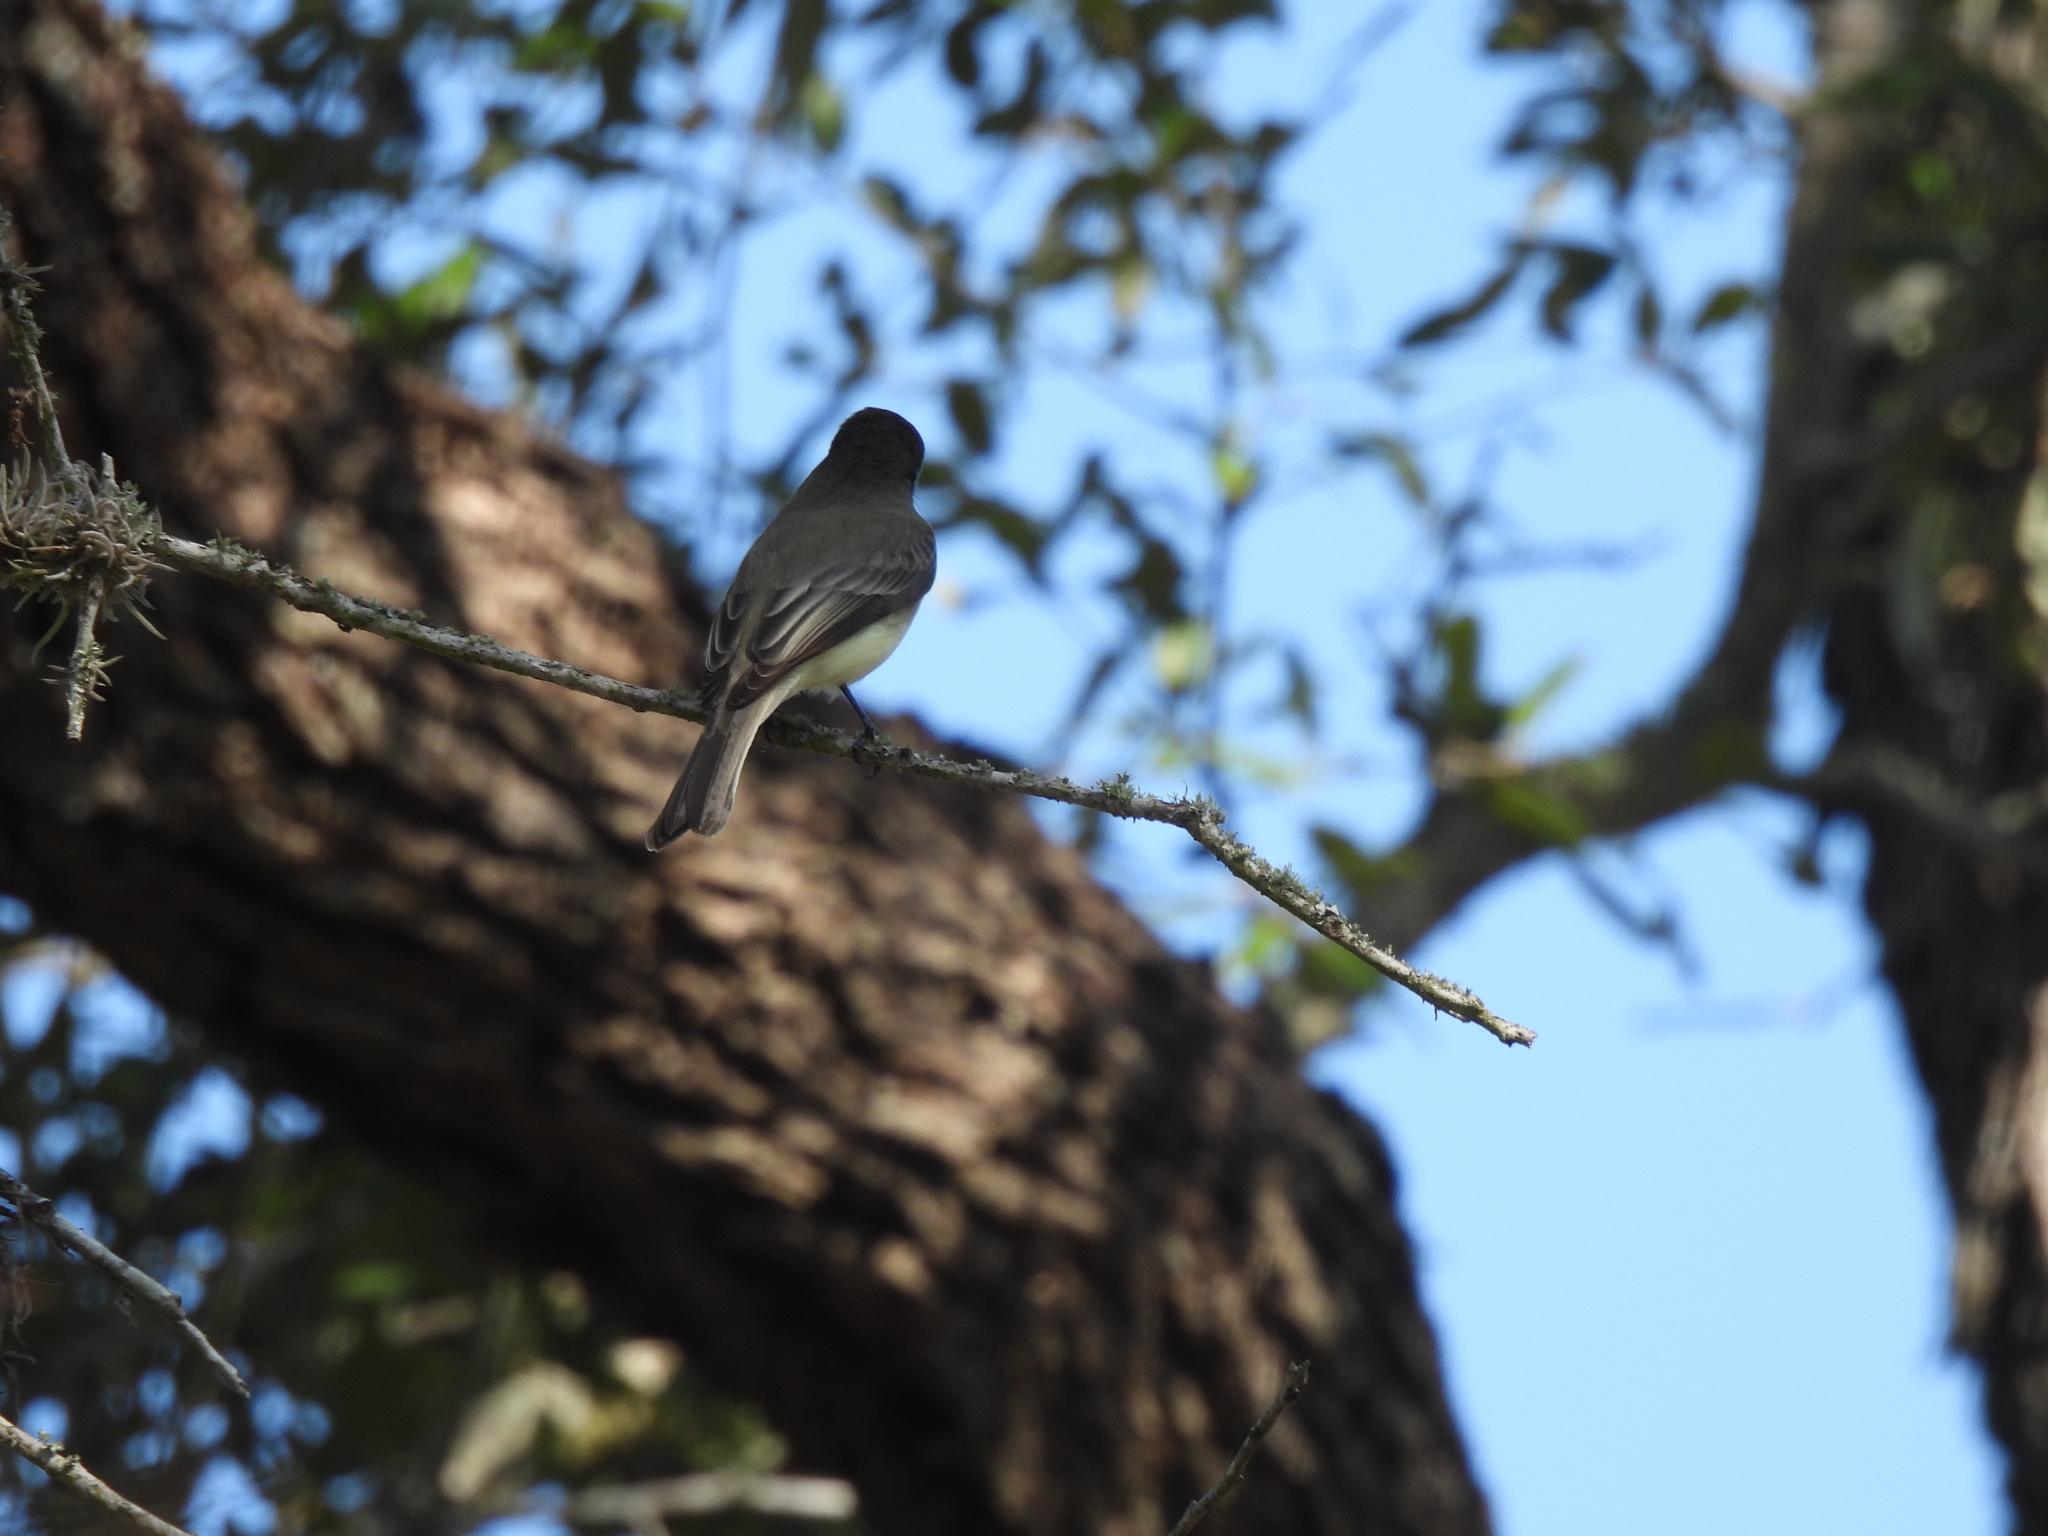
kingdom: Animalia
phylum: Chordata
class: Aves
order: Passeriformes
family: Tyrannidae
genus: Sayornis
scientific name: Sayornis phoebe
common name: Eastern phoebe
